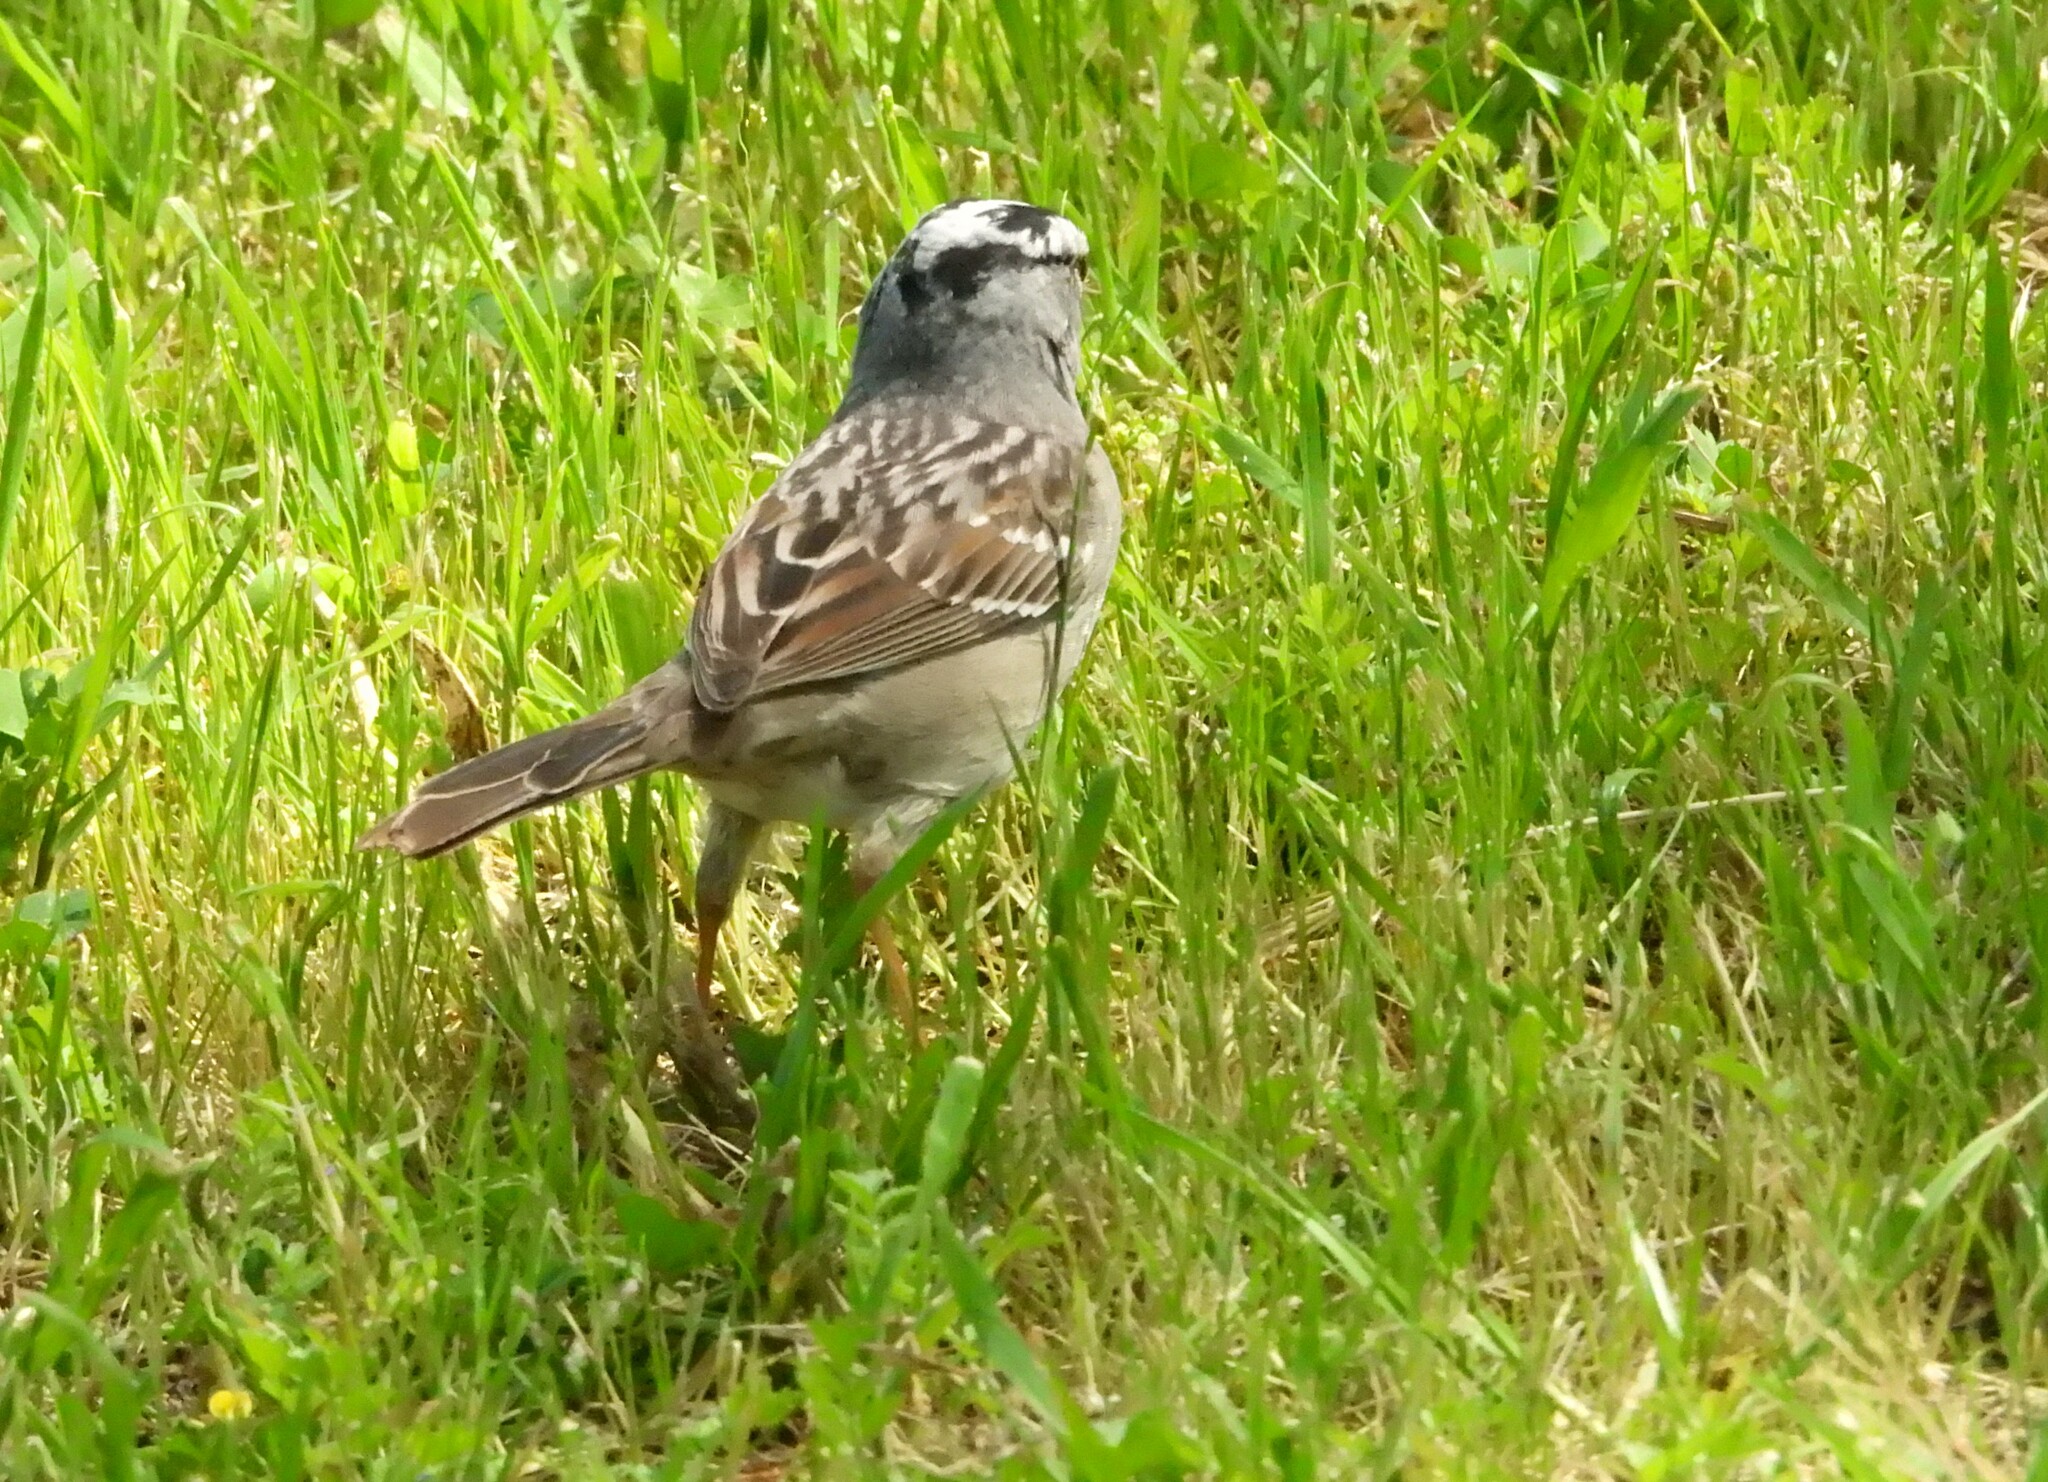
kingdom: Animalia
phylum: Chordata
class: Aves
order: Passeriformes
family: Passerellidae
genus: Zonotrichia
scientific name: Zonotrichia leucophrys
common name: White-crowned sparrow
